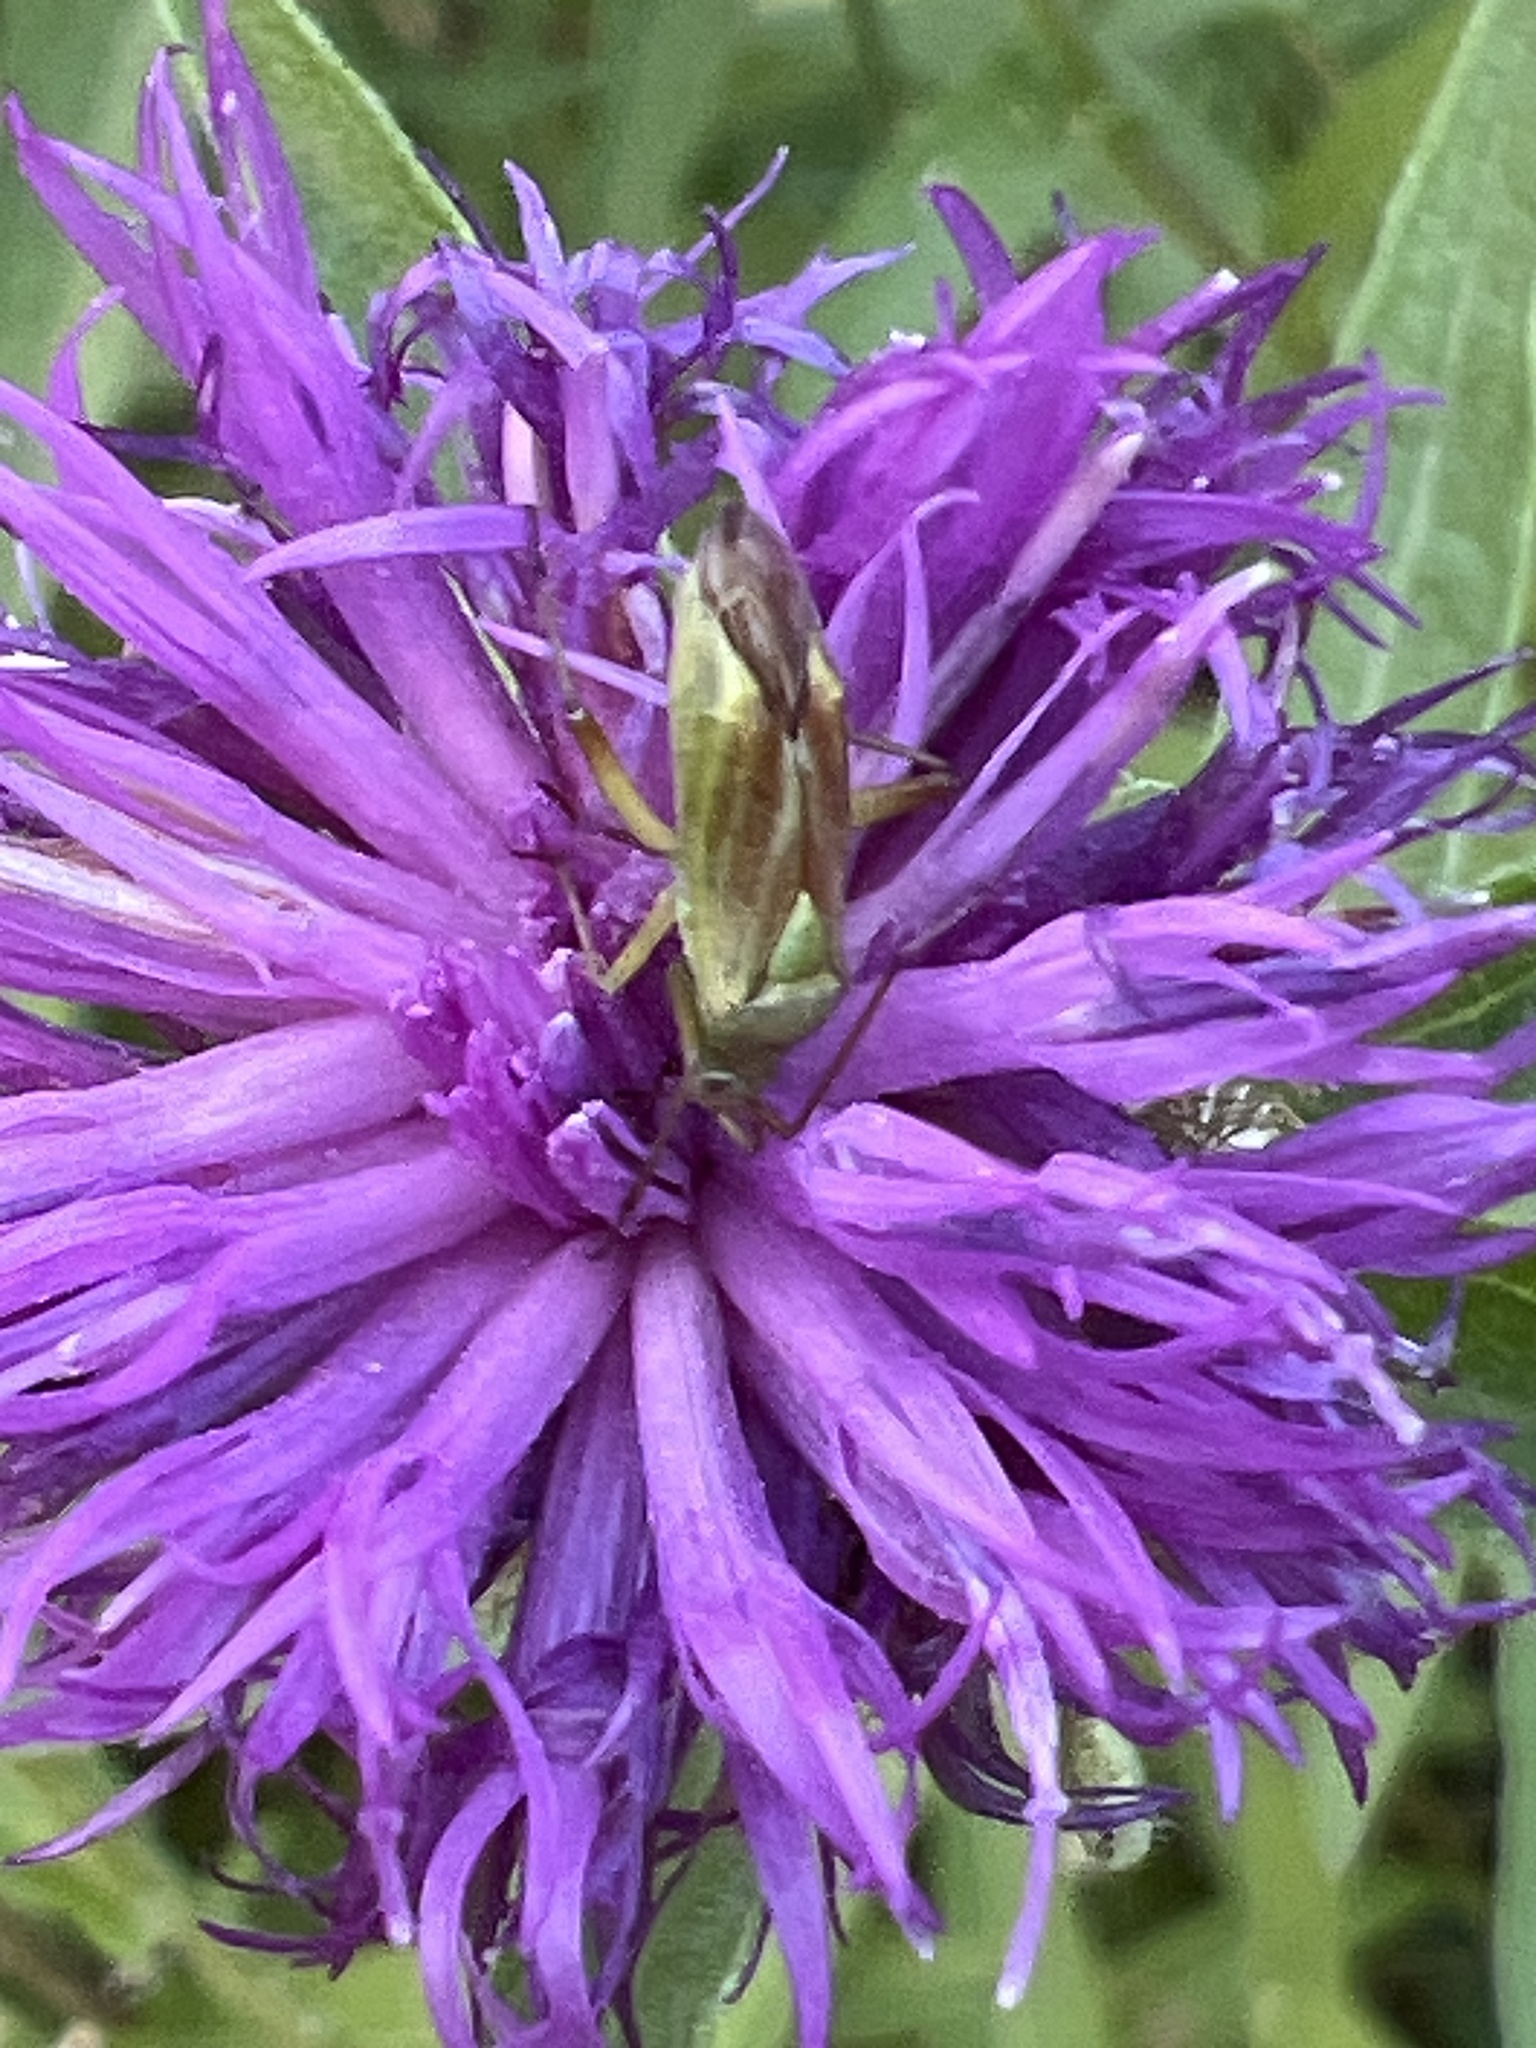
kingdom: Animalia
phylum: Arthropoda
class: Insecta
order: Hemiptera
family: Miridae
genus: Closterotomus
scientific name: Closterotomus norvegicus
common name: Plant bug
